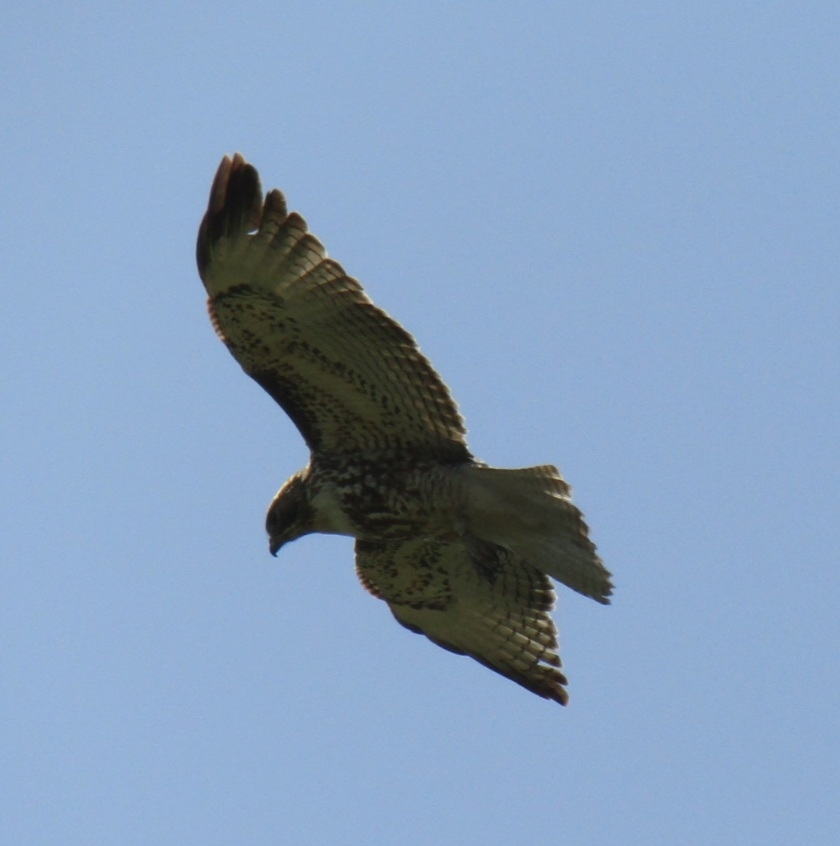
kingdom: Animalia
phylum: Chordata
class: Aves
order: Accipitriformes
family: Accipitridae
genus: Buteo
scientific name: Buteo jamaicensis
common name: Red-tailed hawk
